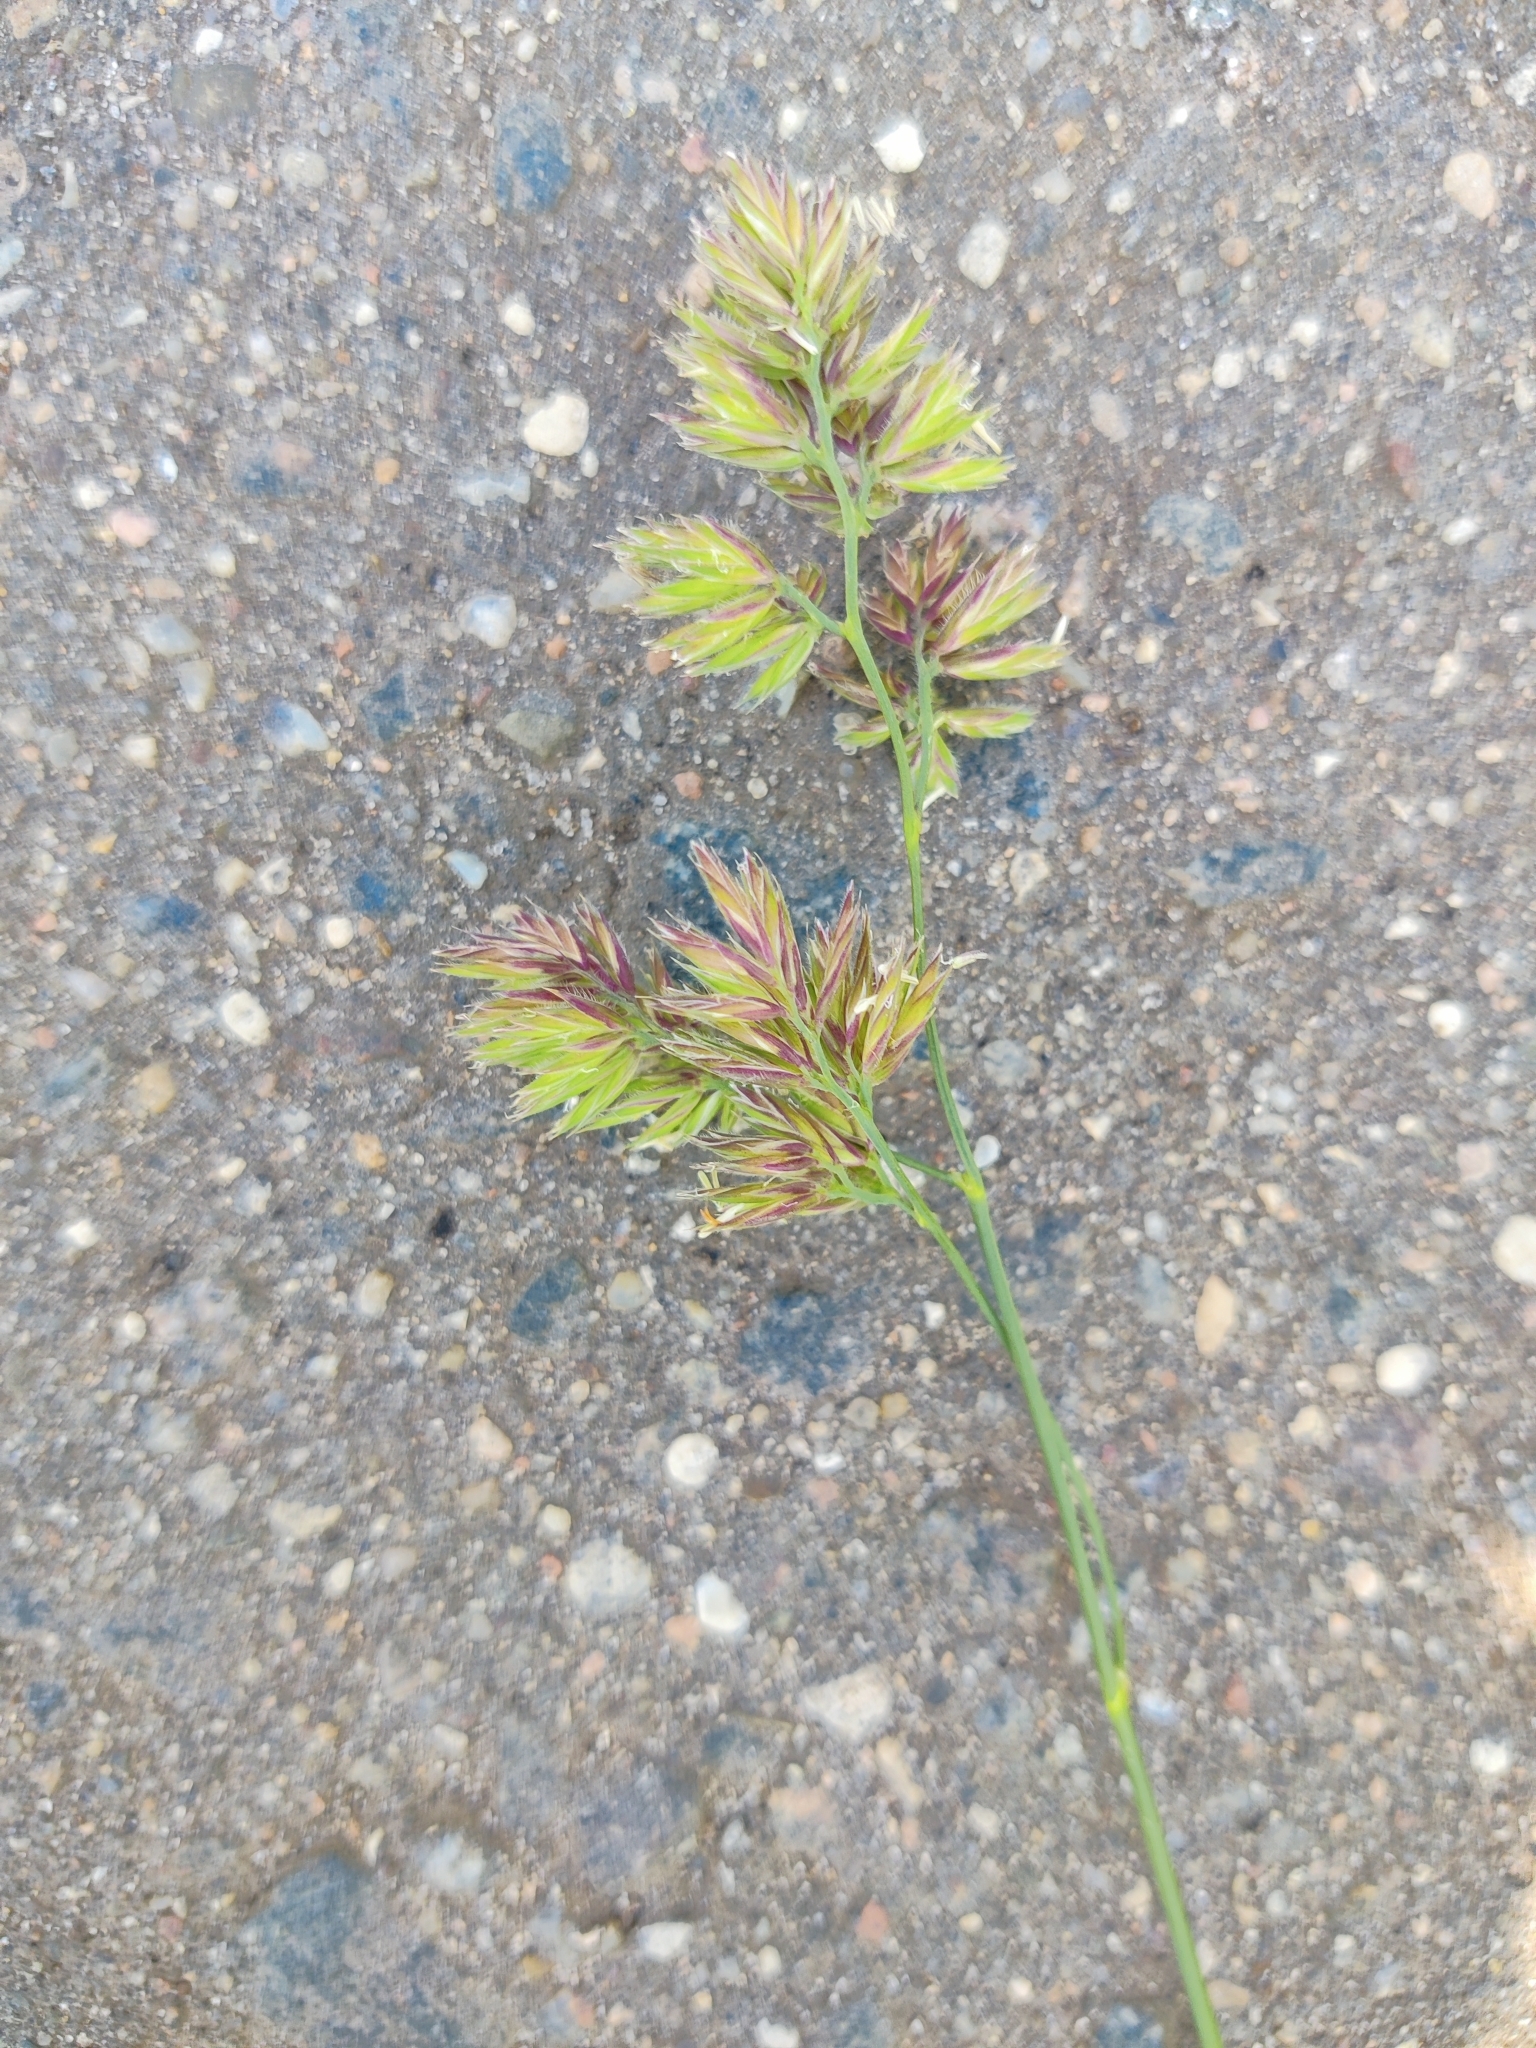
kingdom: Plantae
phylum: Tracheophyta
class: Liliopsida
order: Poales
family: Poaceae
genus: Dactylis
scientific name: Dactylis glomerata
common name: Orchardgrass
